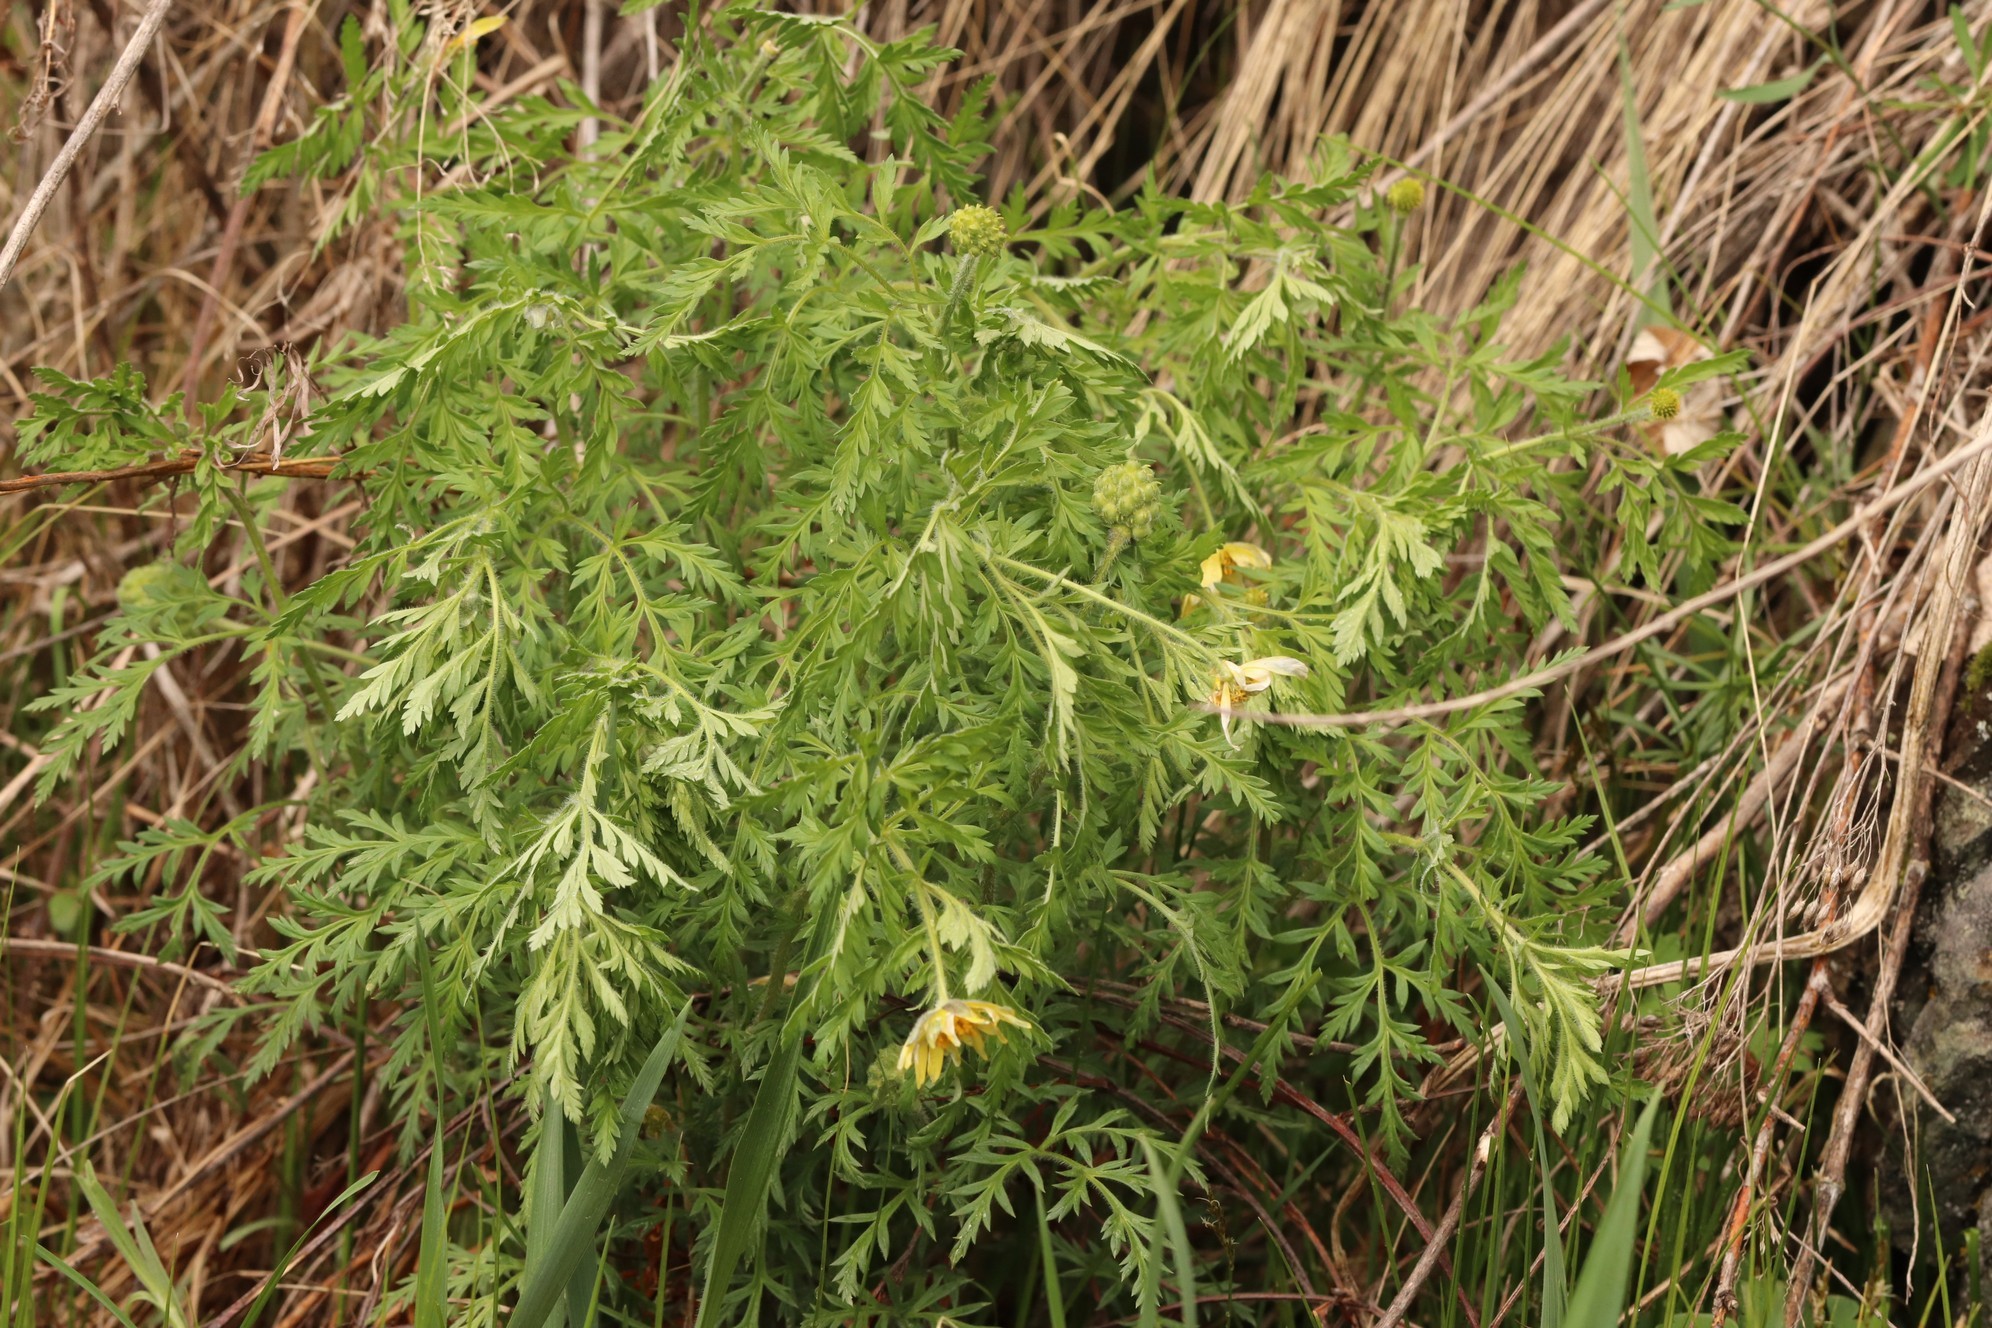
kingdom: Plantae
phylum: Tracheophyta
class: Magnoliopsida
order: Ranunculales
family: Ranunculaceae
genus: Adonis
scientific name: Adonis villosa
